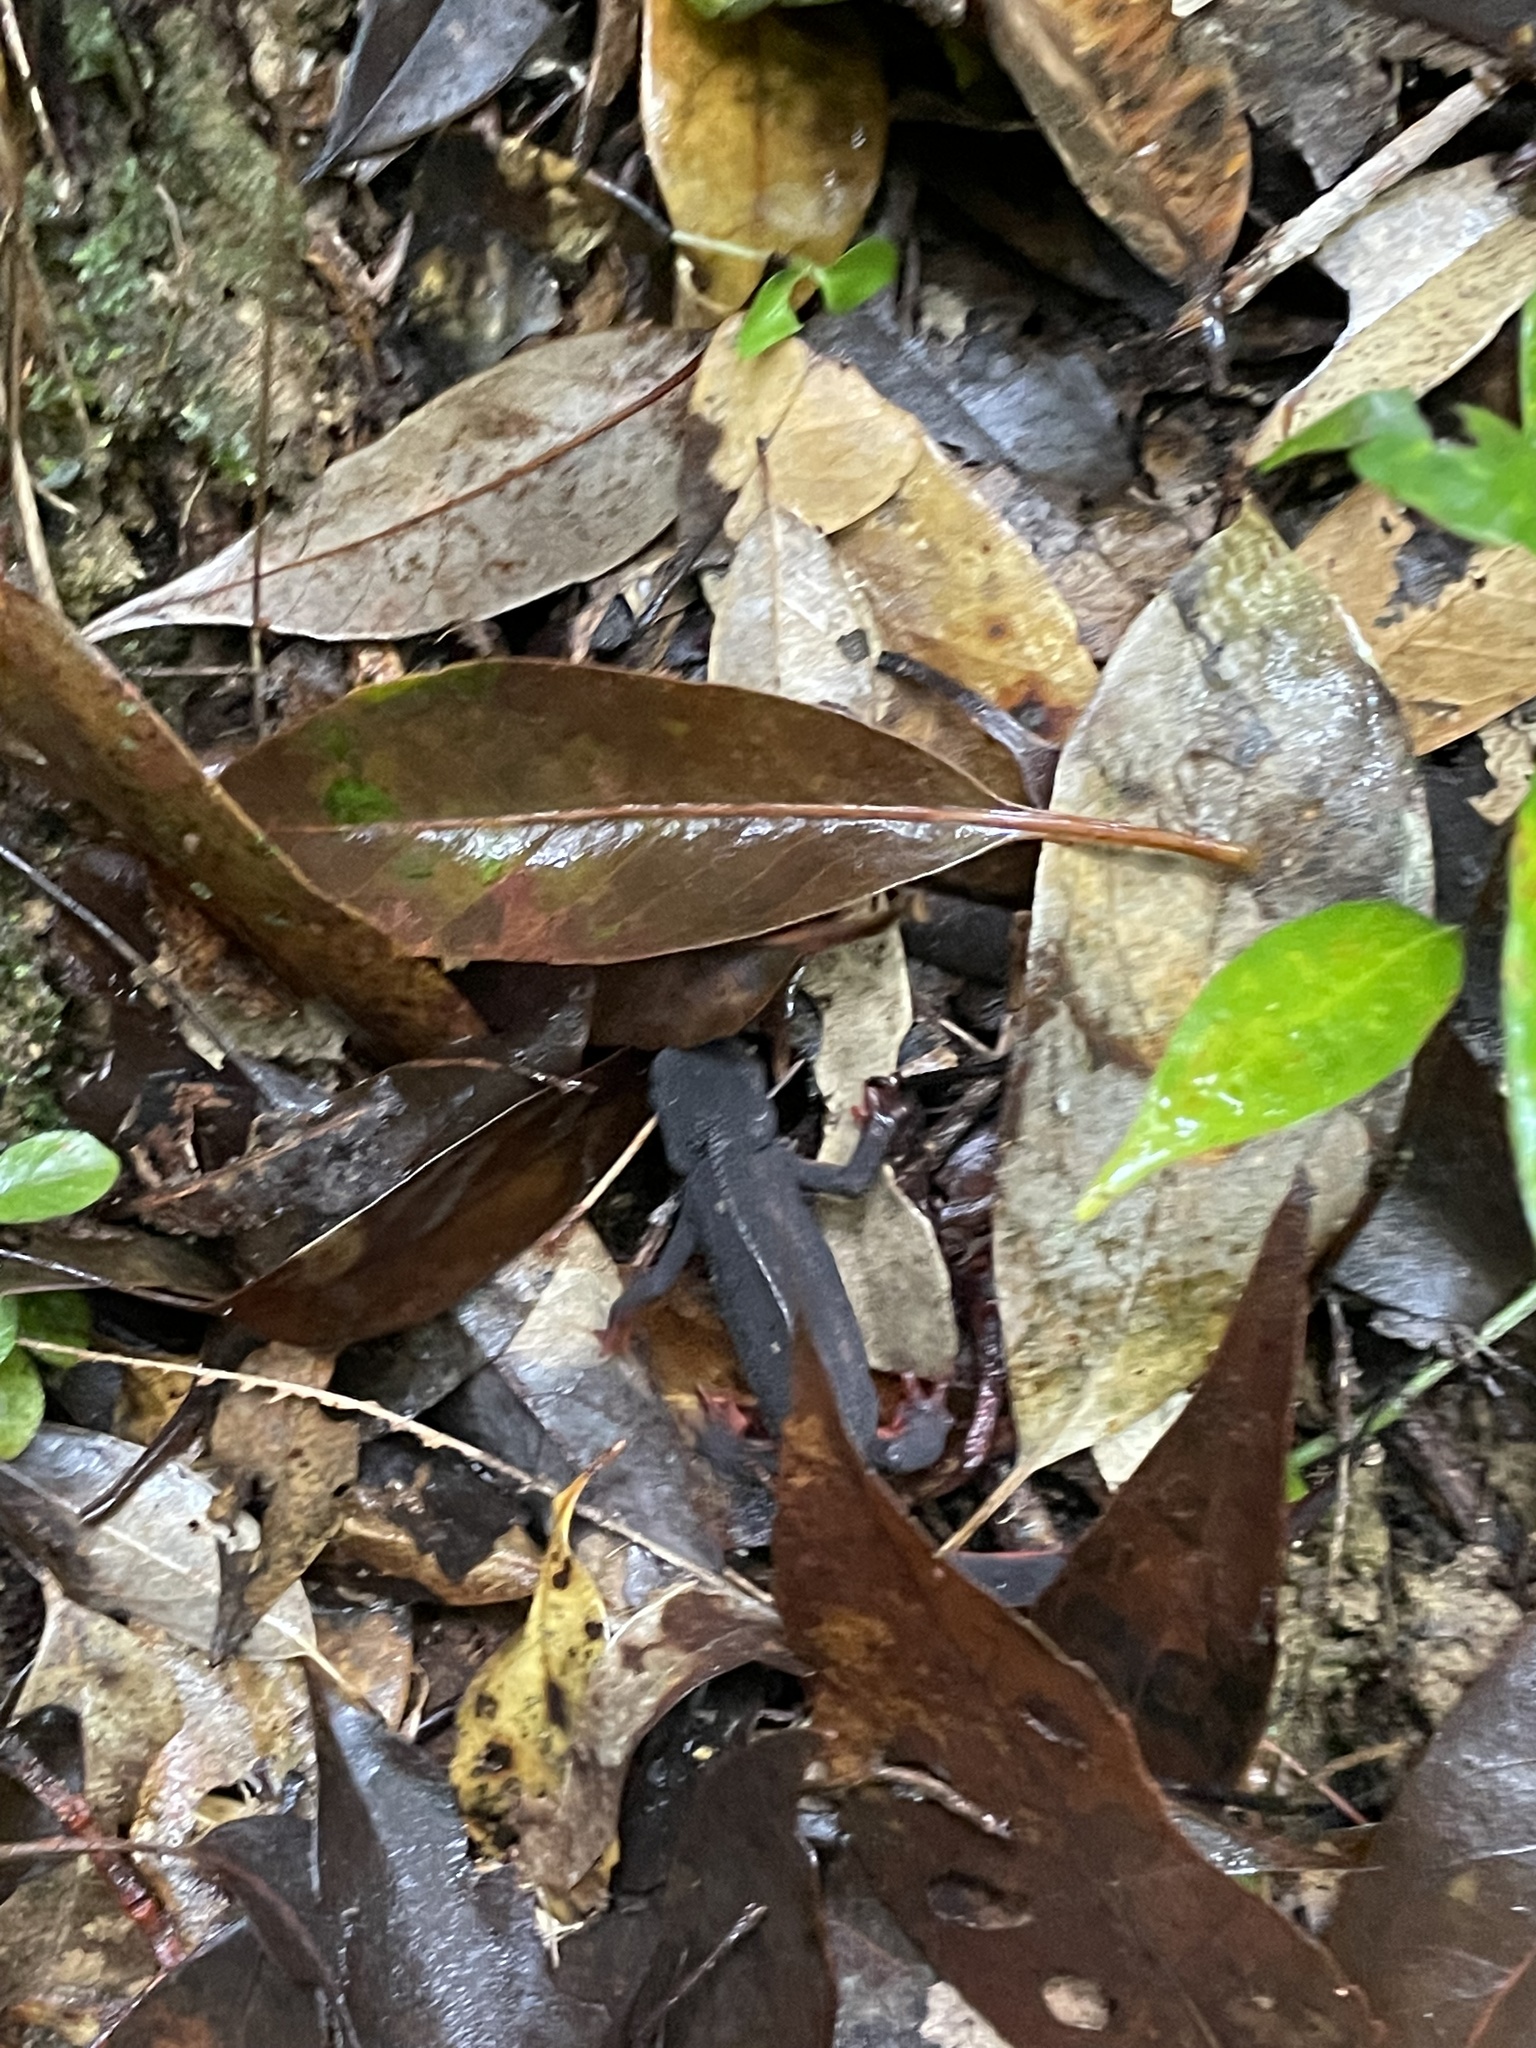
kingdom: Animalia
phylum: Chordata
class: Amphibia
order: Caudata
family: Salamandridae
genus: Cynops
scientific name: Cynops ensicauda
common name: Sword-tailed newt
